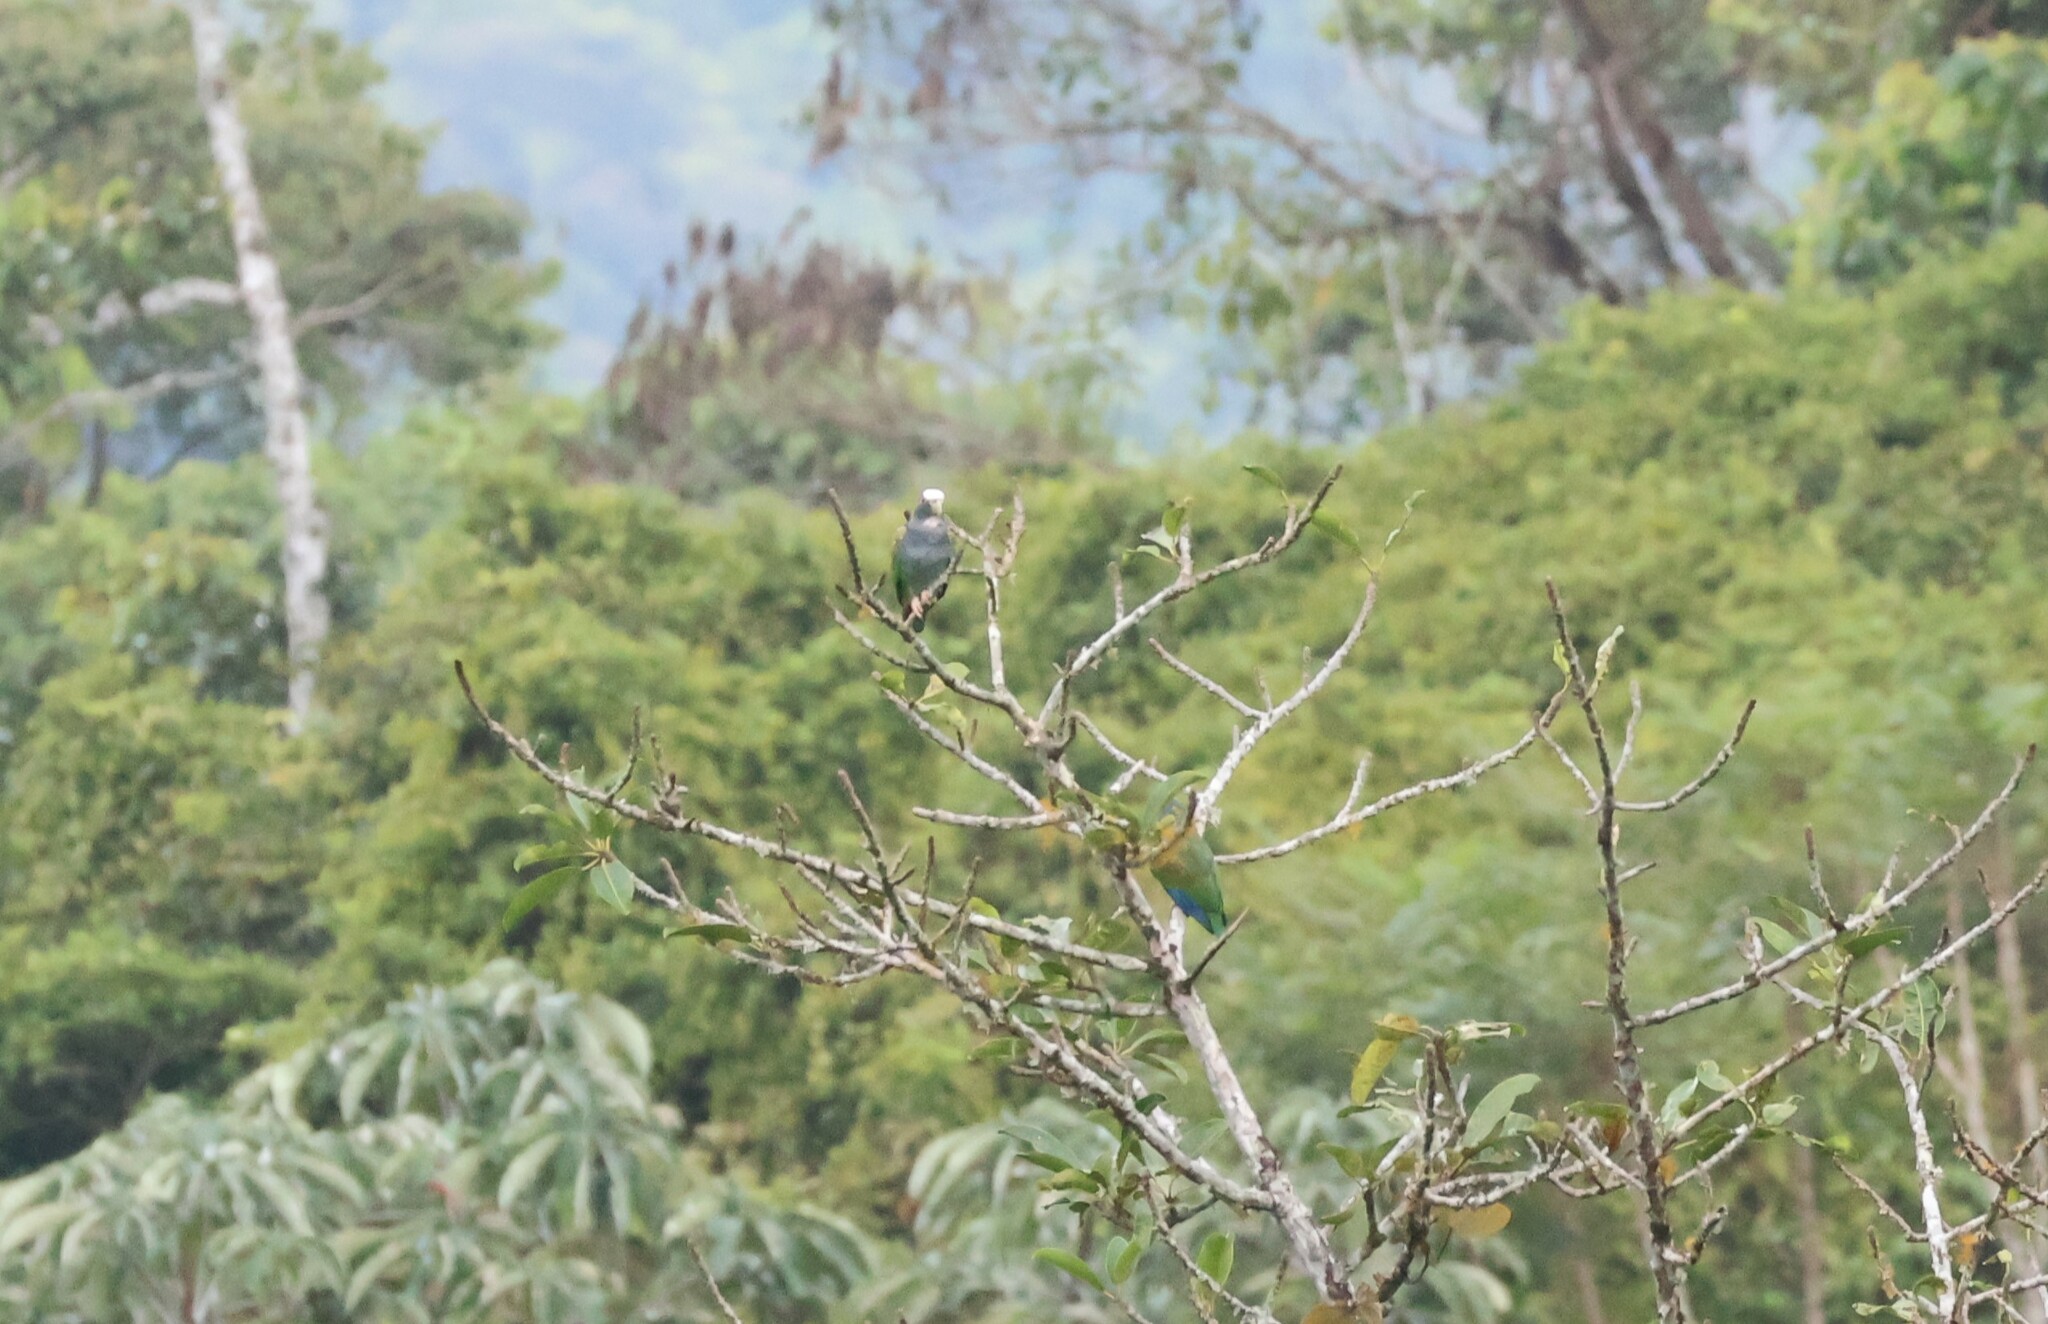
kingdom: Animalia
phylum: Chordata
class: Aves
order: Psittaciformes
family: Psittacidae
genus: Pionus
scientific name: Pionus senilis
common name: White-crowned parrot
